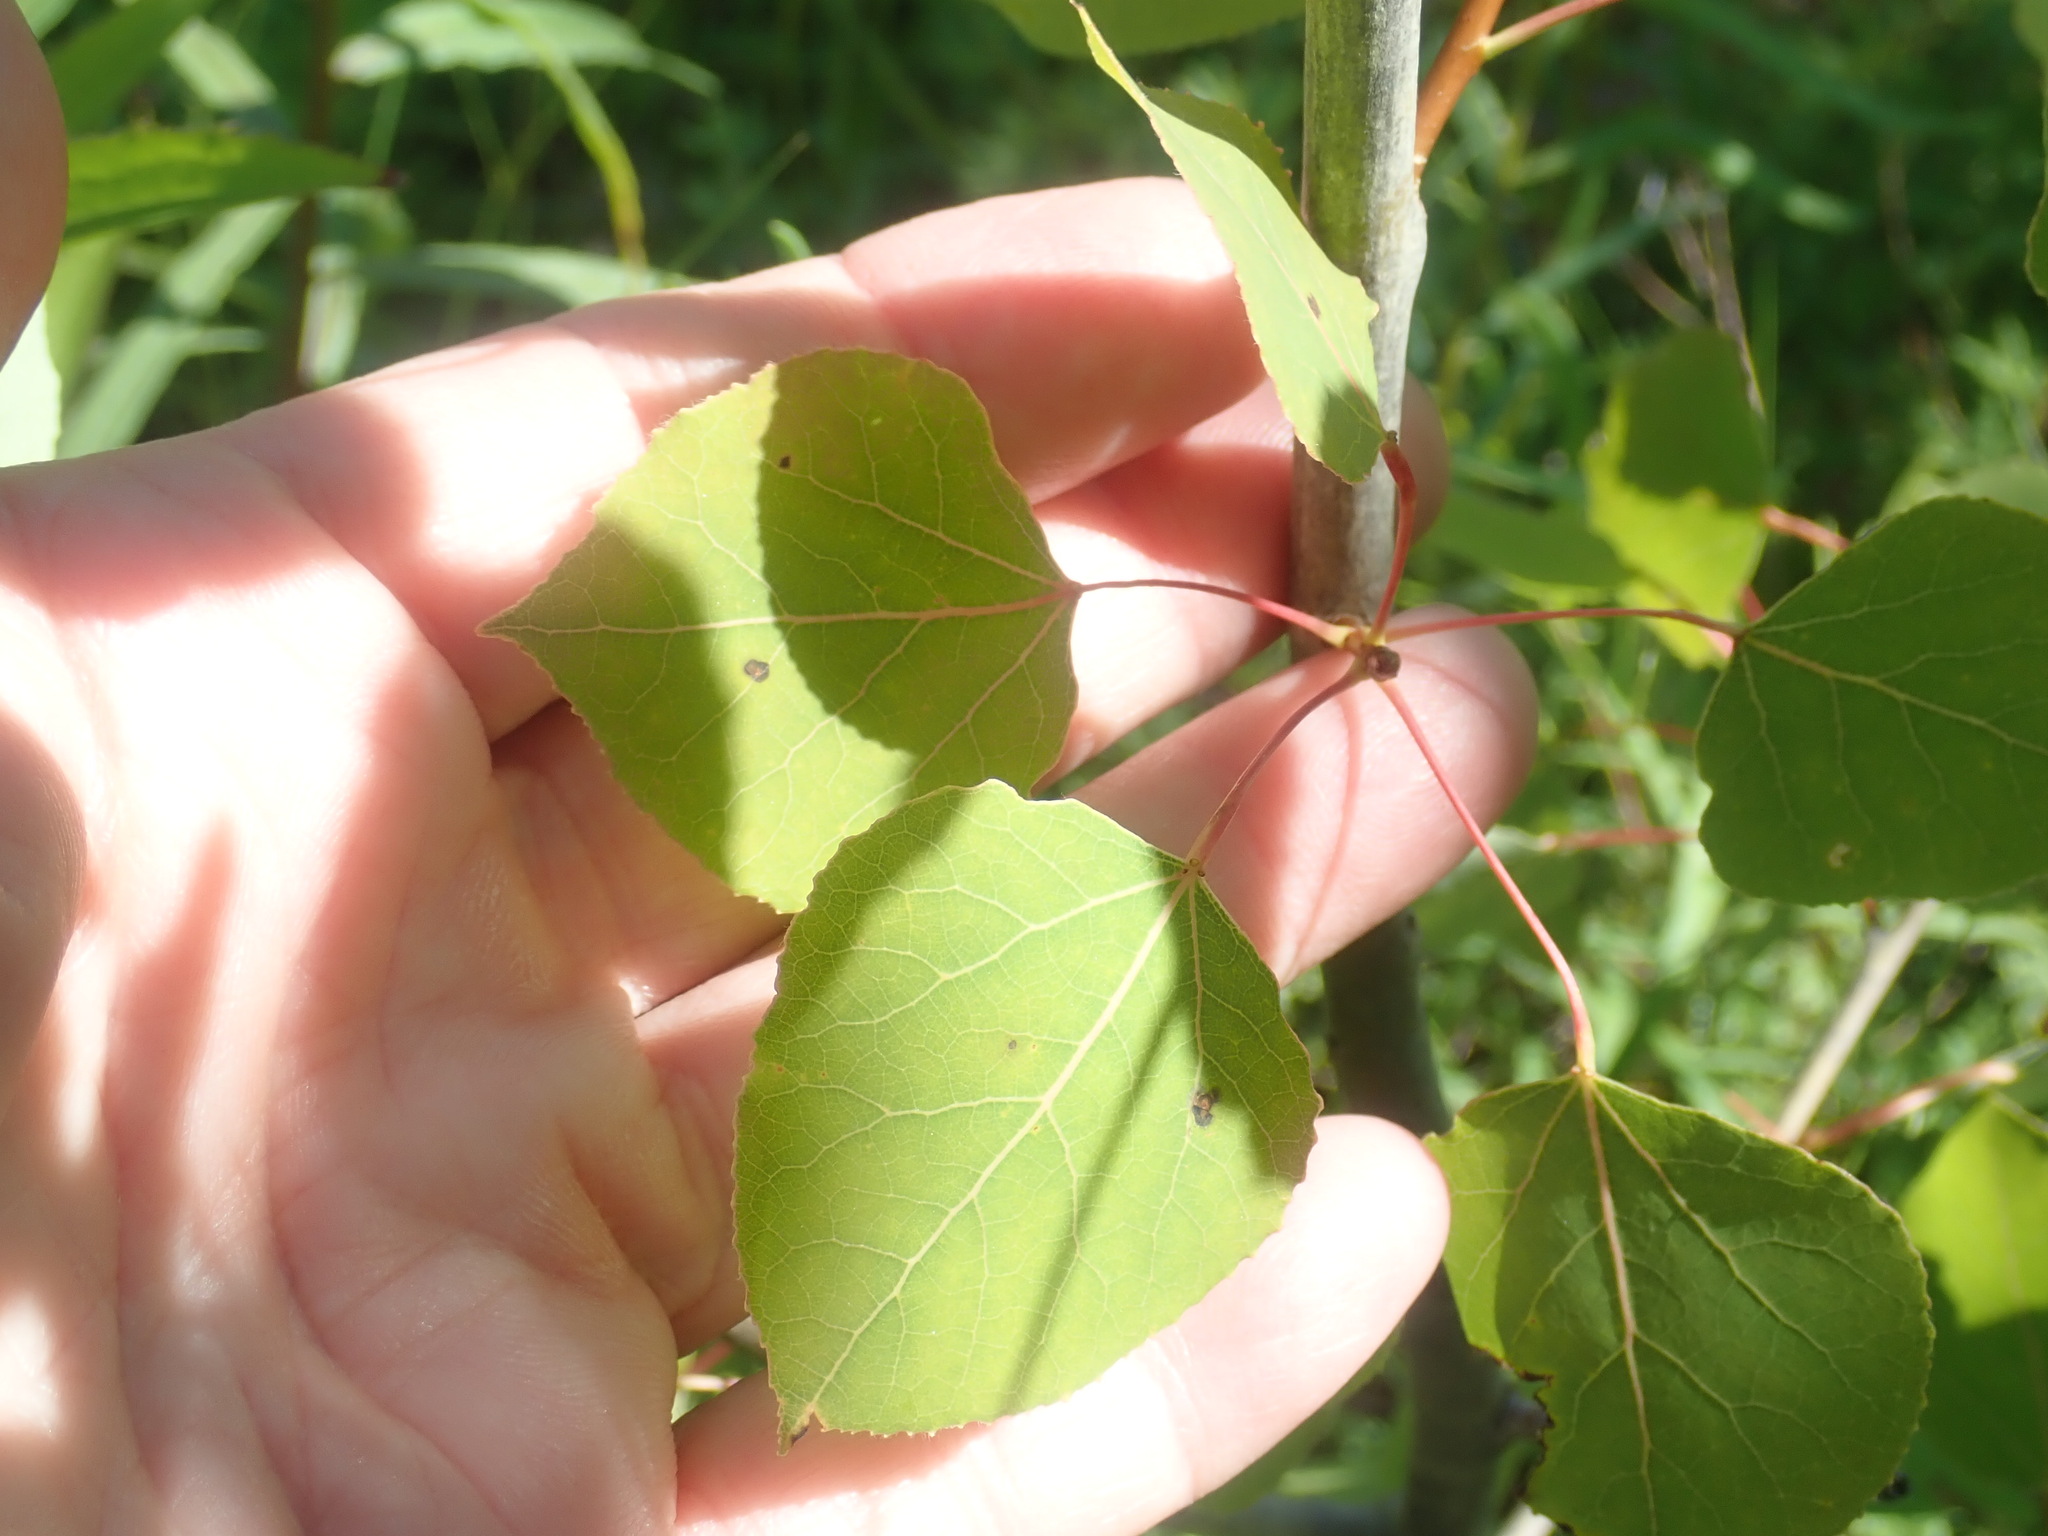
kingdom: Plantae
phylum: Tracheophyta
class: Magnoliopsida
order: Malpighiales
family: Salicaceae
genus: Populus
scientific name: Populus tremuloides
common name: Quaking aspen
